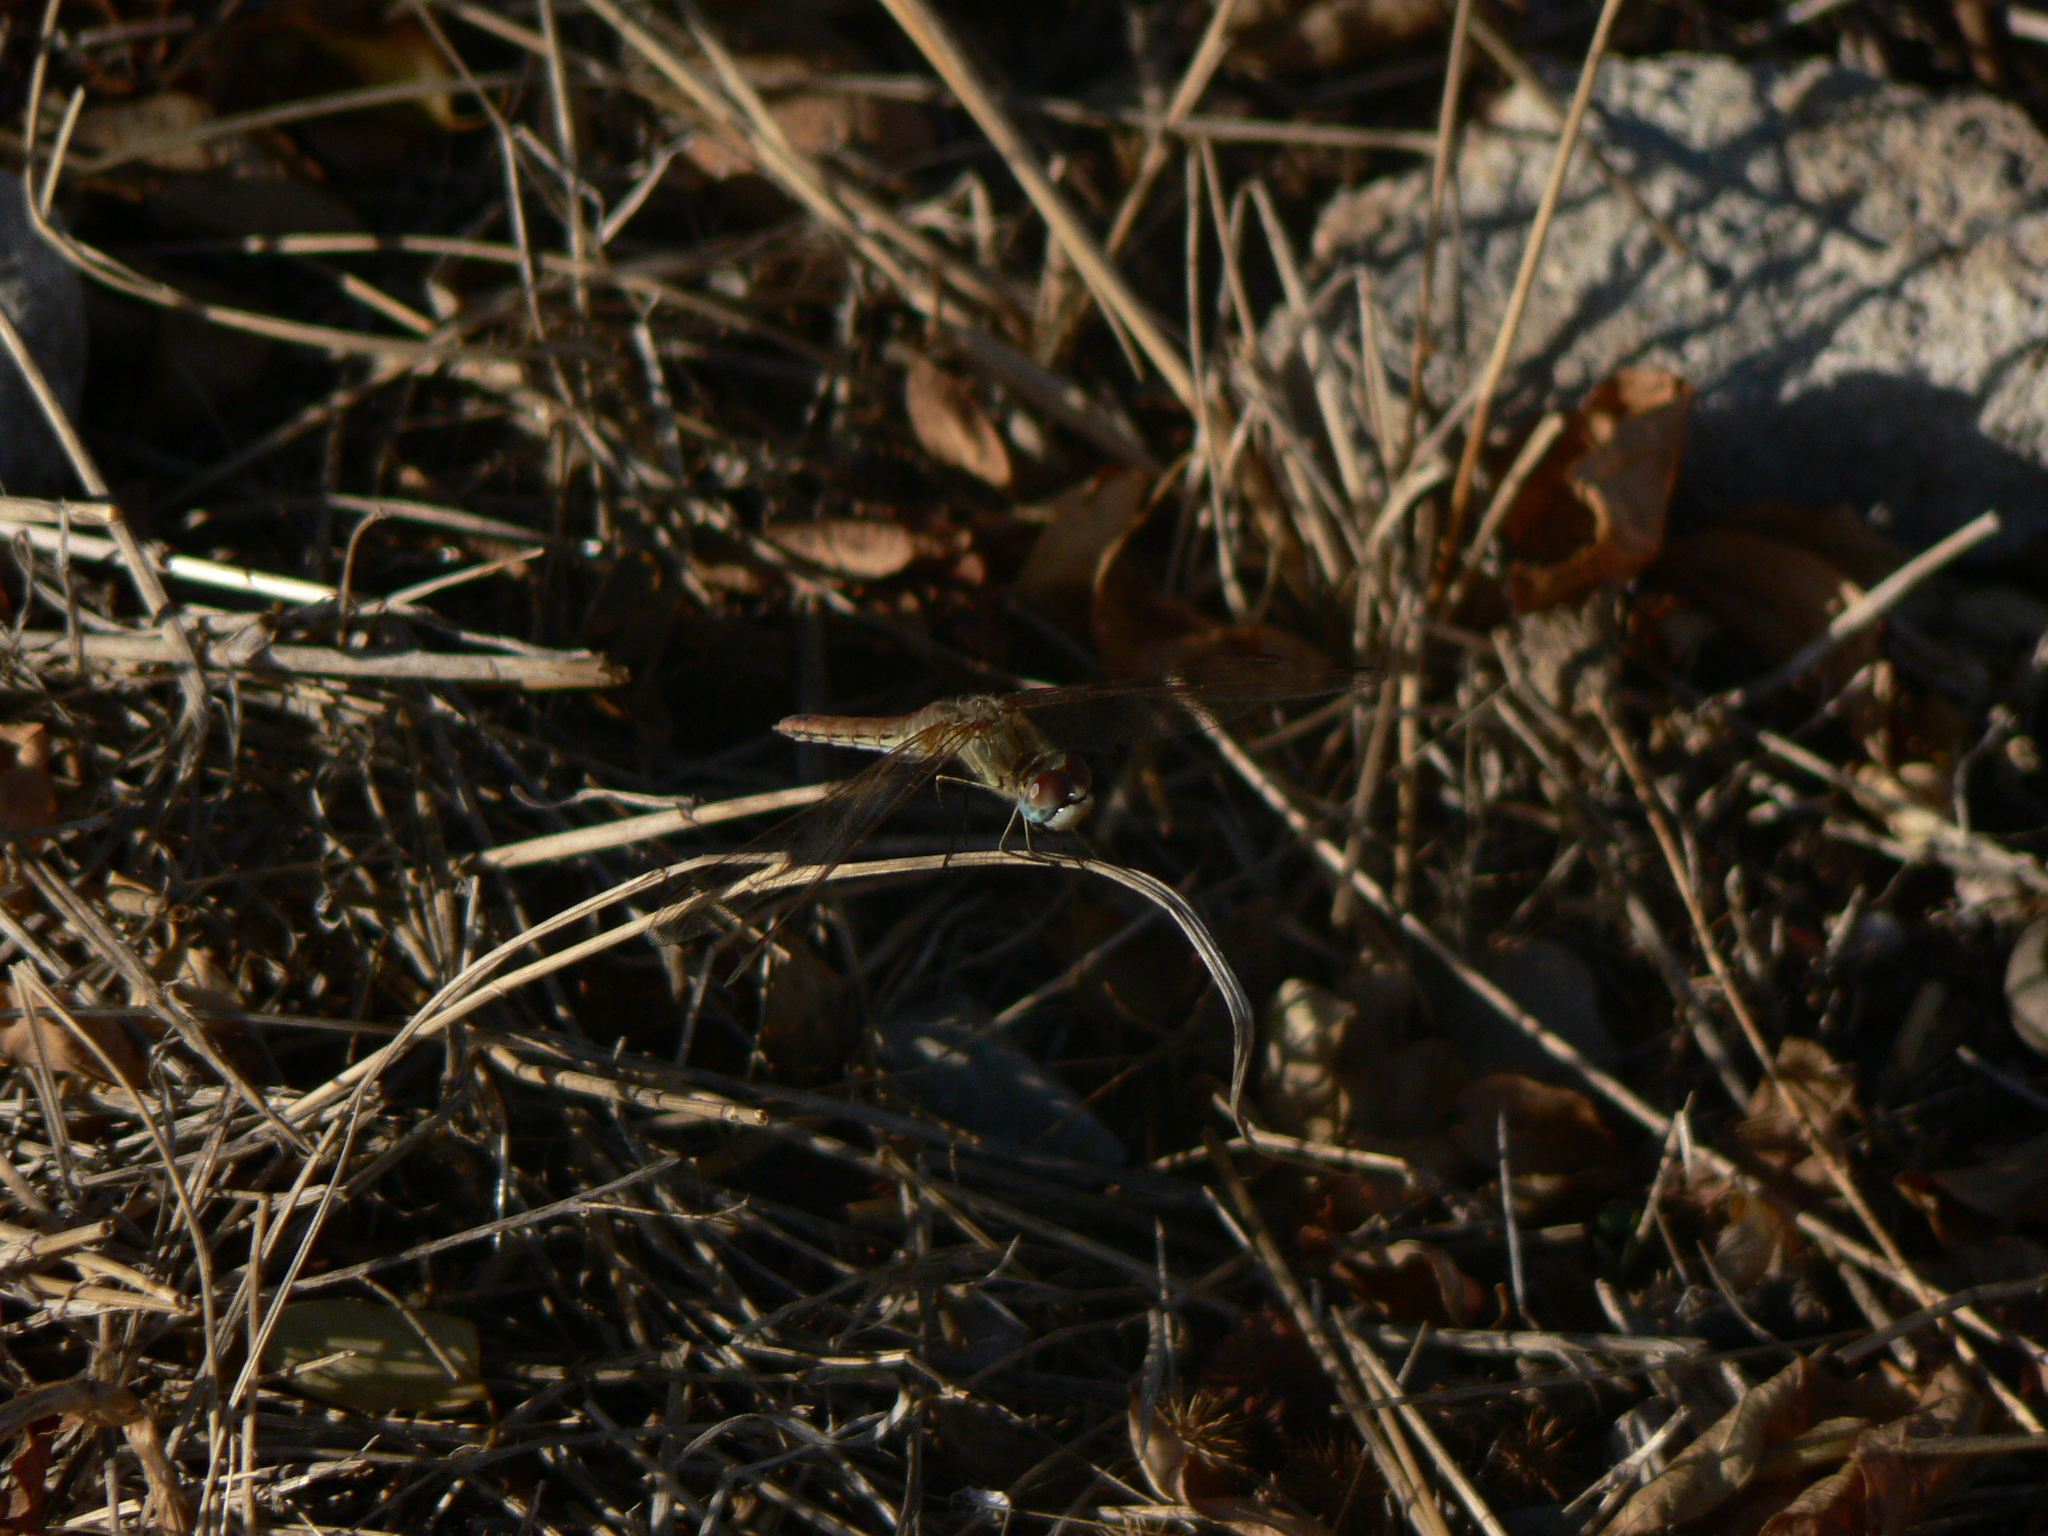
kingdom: Animalia
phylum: Arthropoda
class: Insecta
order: Odonata
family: Libellulidae
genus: Sympetrum
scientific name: Sympetrum fonscolombii
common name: Red-veined darter
